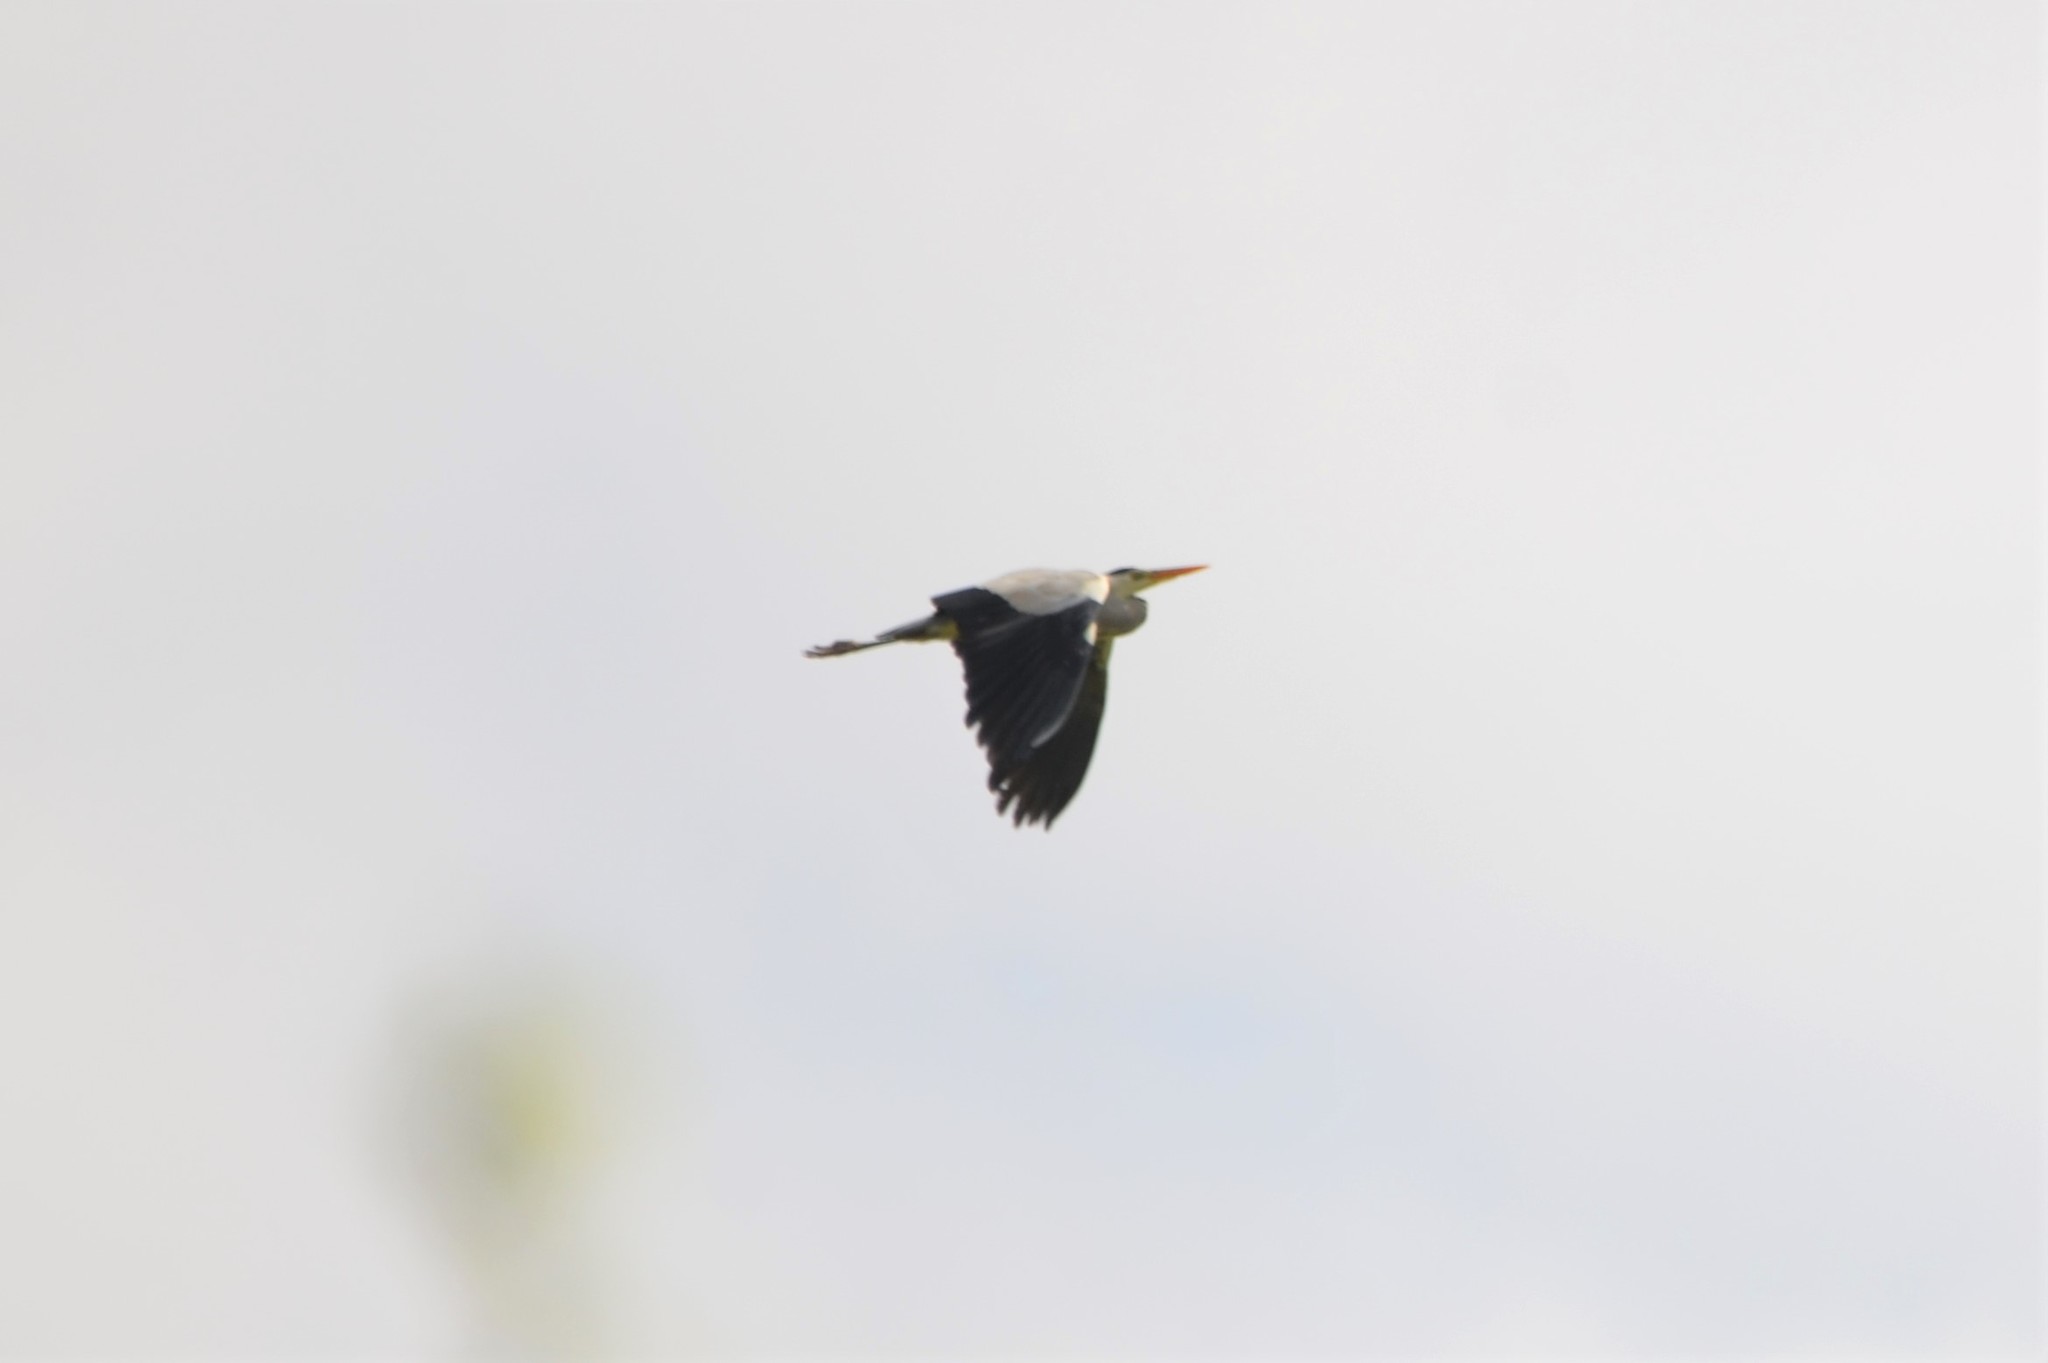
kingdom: Animalia
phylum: Chordata
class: Aves
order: Pelecaniformes
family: Ardeidae
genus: Ardea
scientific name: Ardea cinerea
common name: Grey heron
